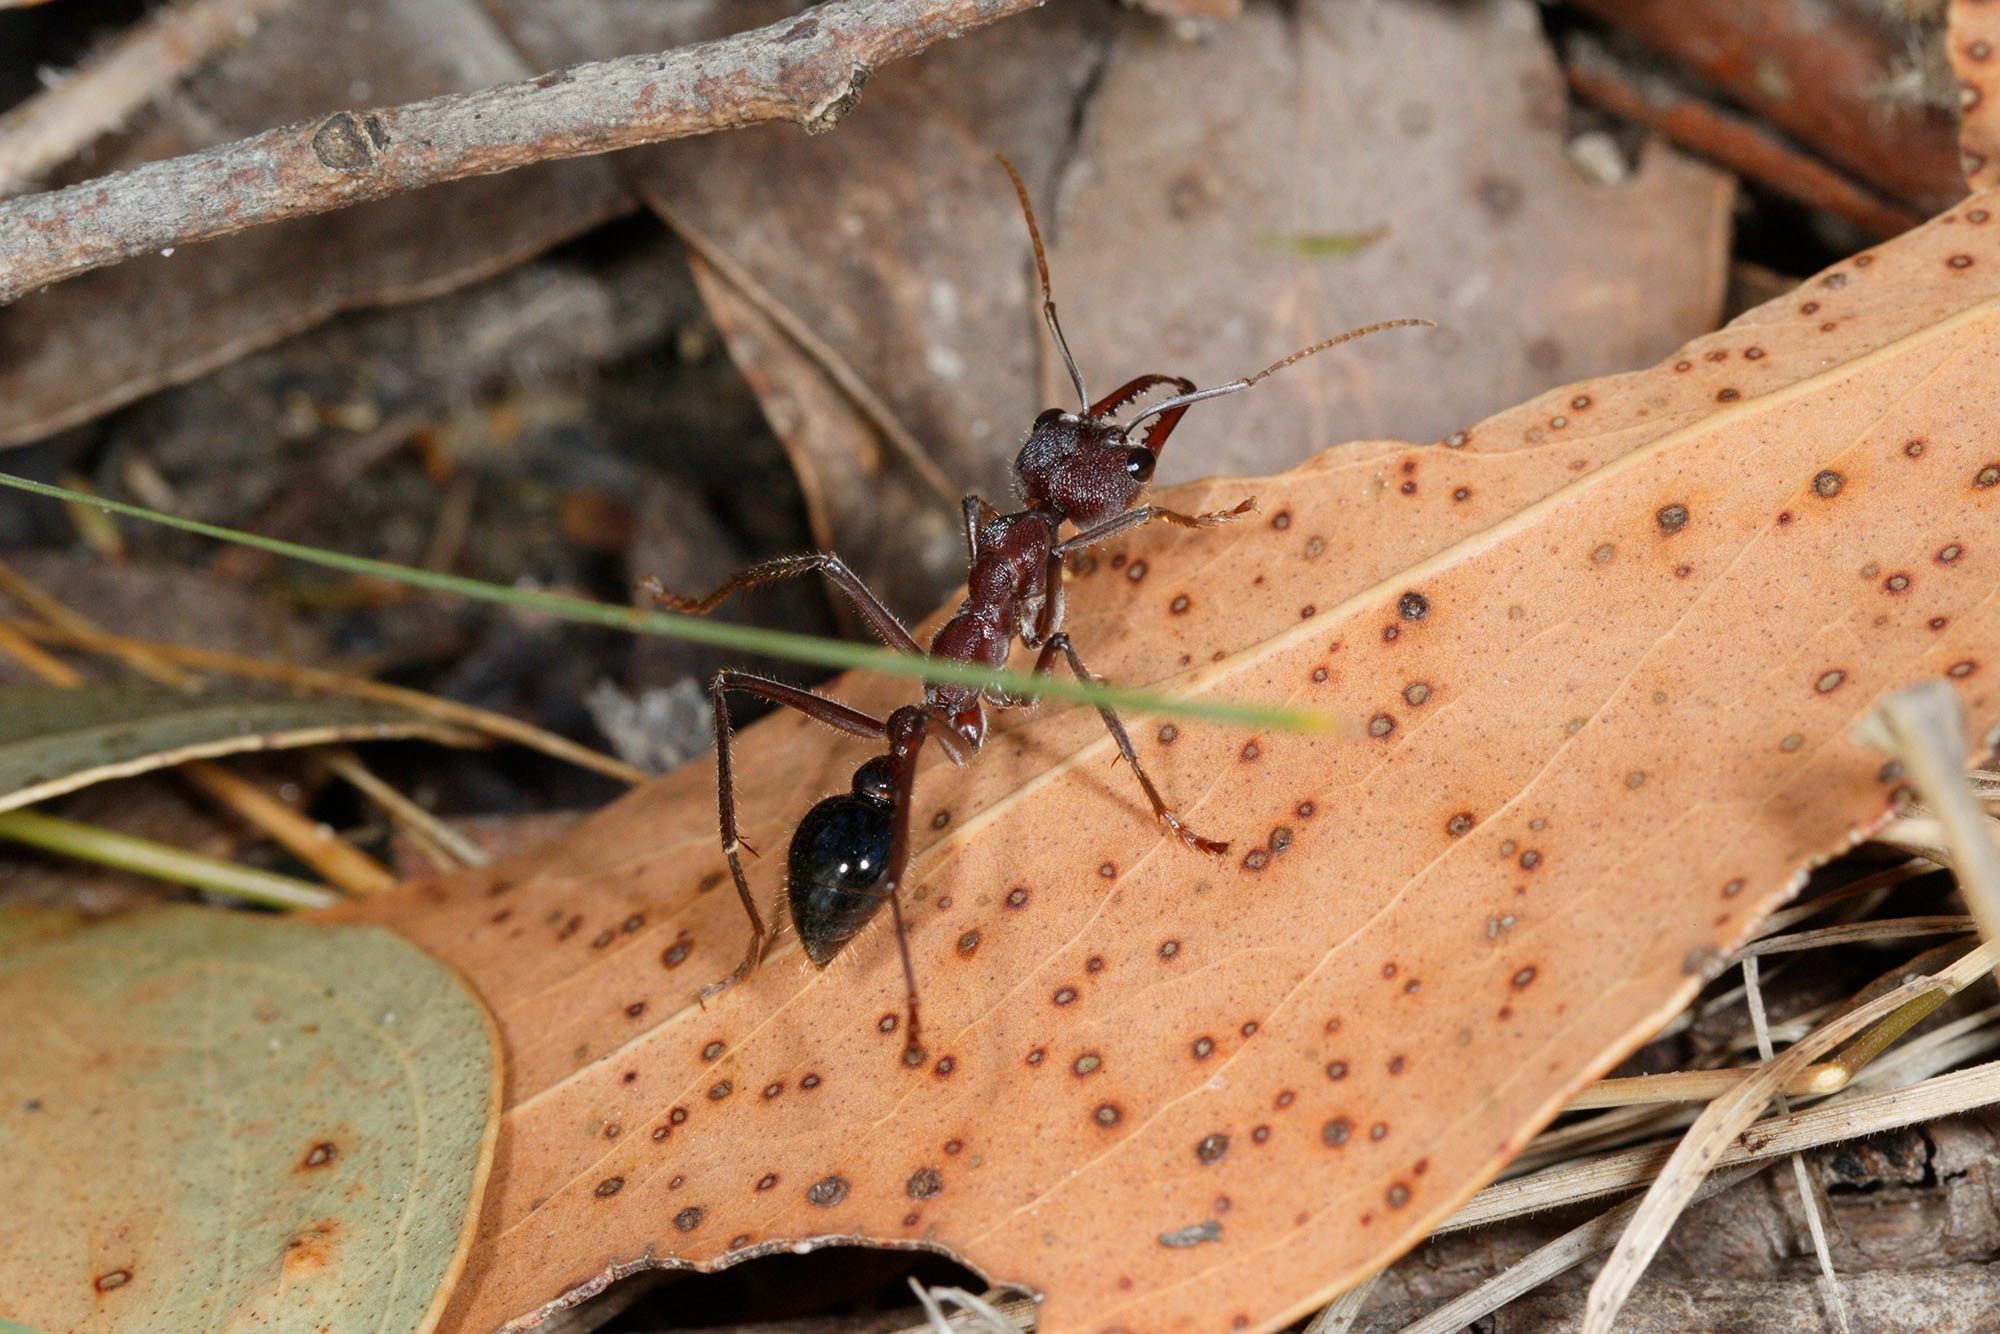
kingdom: Animalia
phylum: Arthropoda
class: Insecta
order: Hymenoptera
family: Formicidae
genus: Myrmecia
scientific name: Myrmecia simillima
